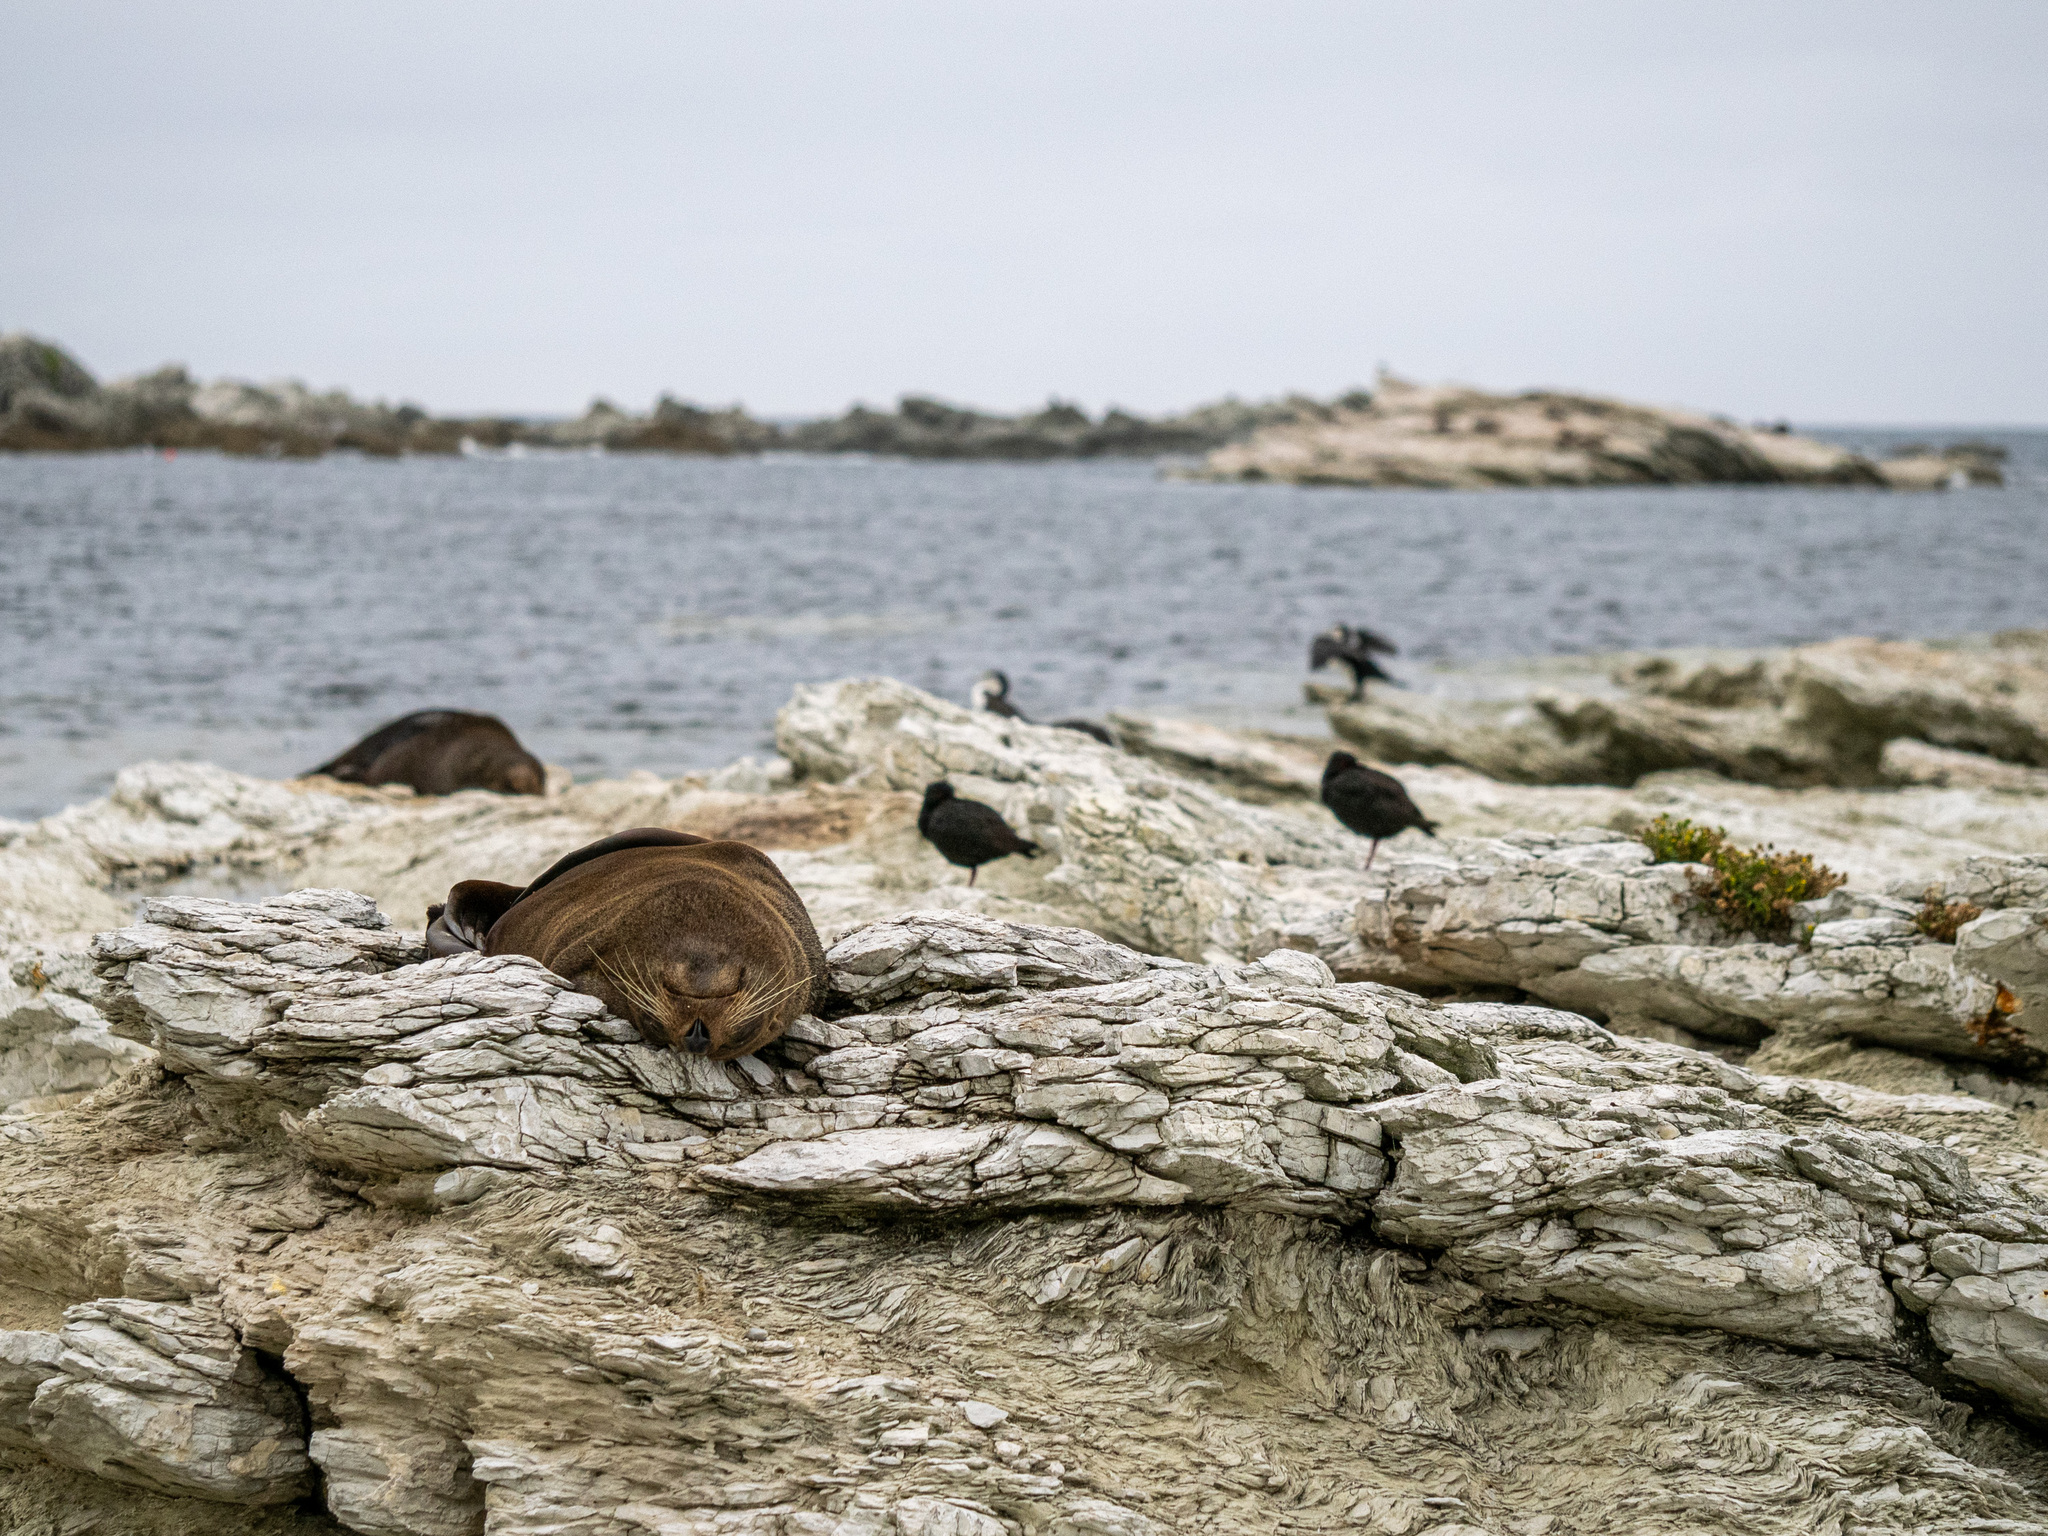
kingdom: Animalia
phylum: Chordata
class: Mammalia
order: Carnivora
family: Otariidae
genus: Arctocephalus
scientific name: Arctocephalus forsteri
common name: New zealand fur seal
